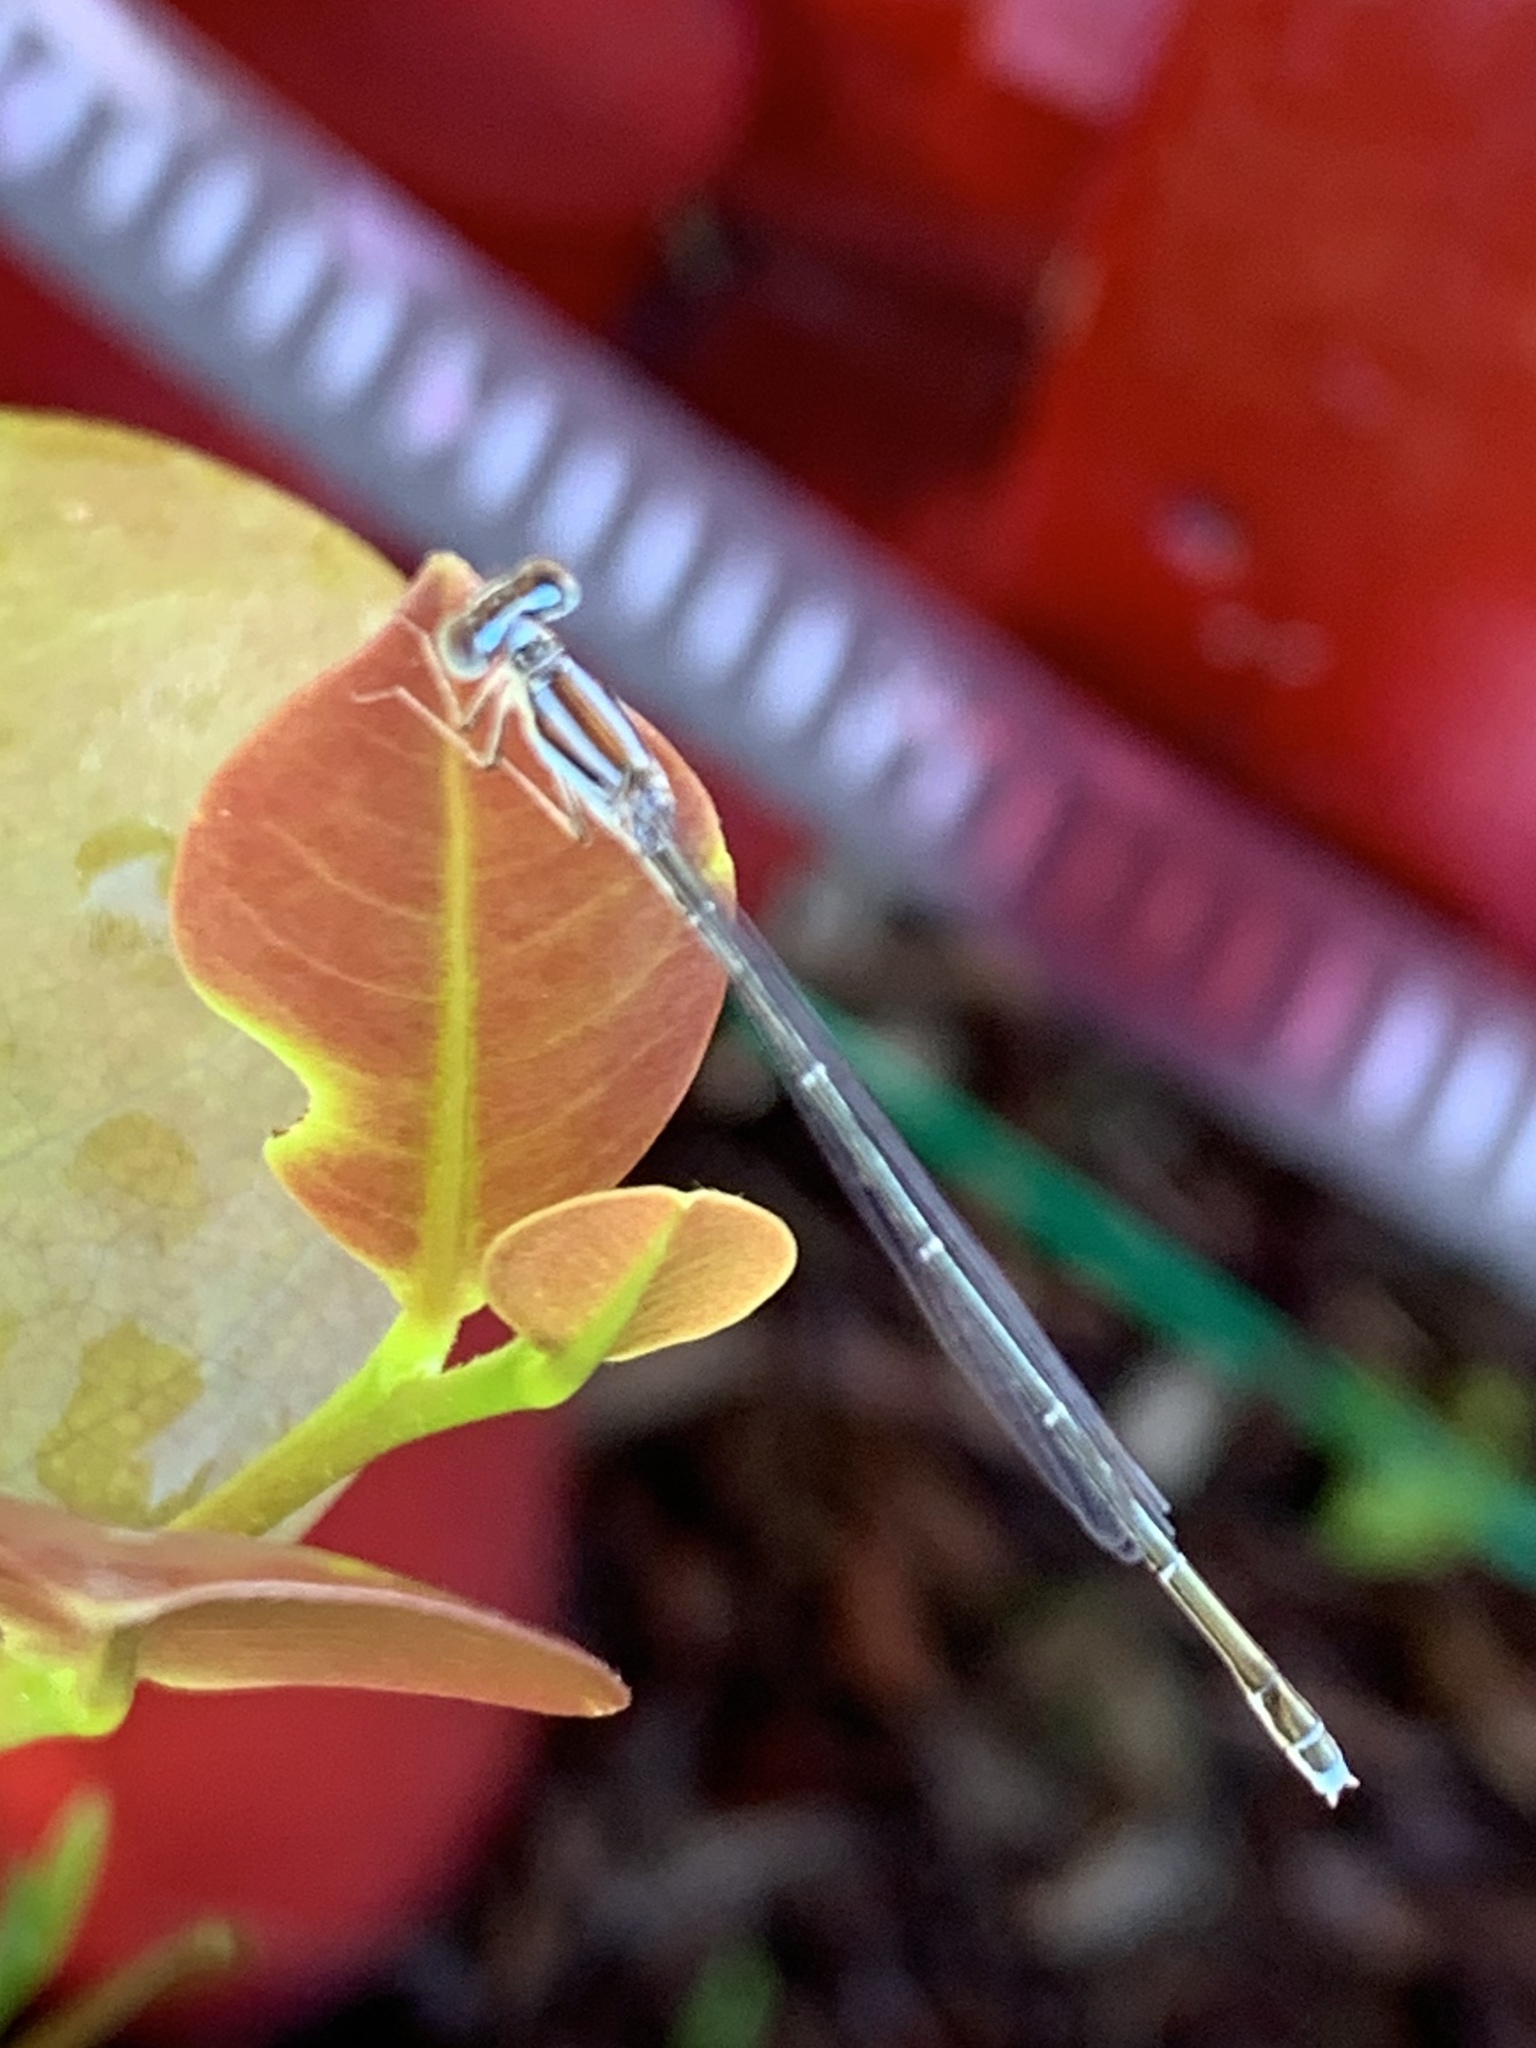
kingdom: Animalia
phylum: Arthropoda
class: Insecta
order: Odonata
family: Coenagrionidae
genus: Enallagma
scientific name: Enallagma pollutum
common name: Florida bluet
